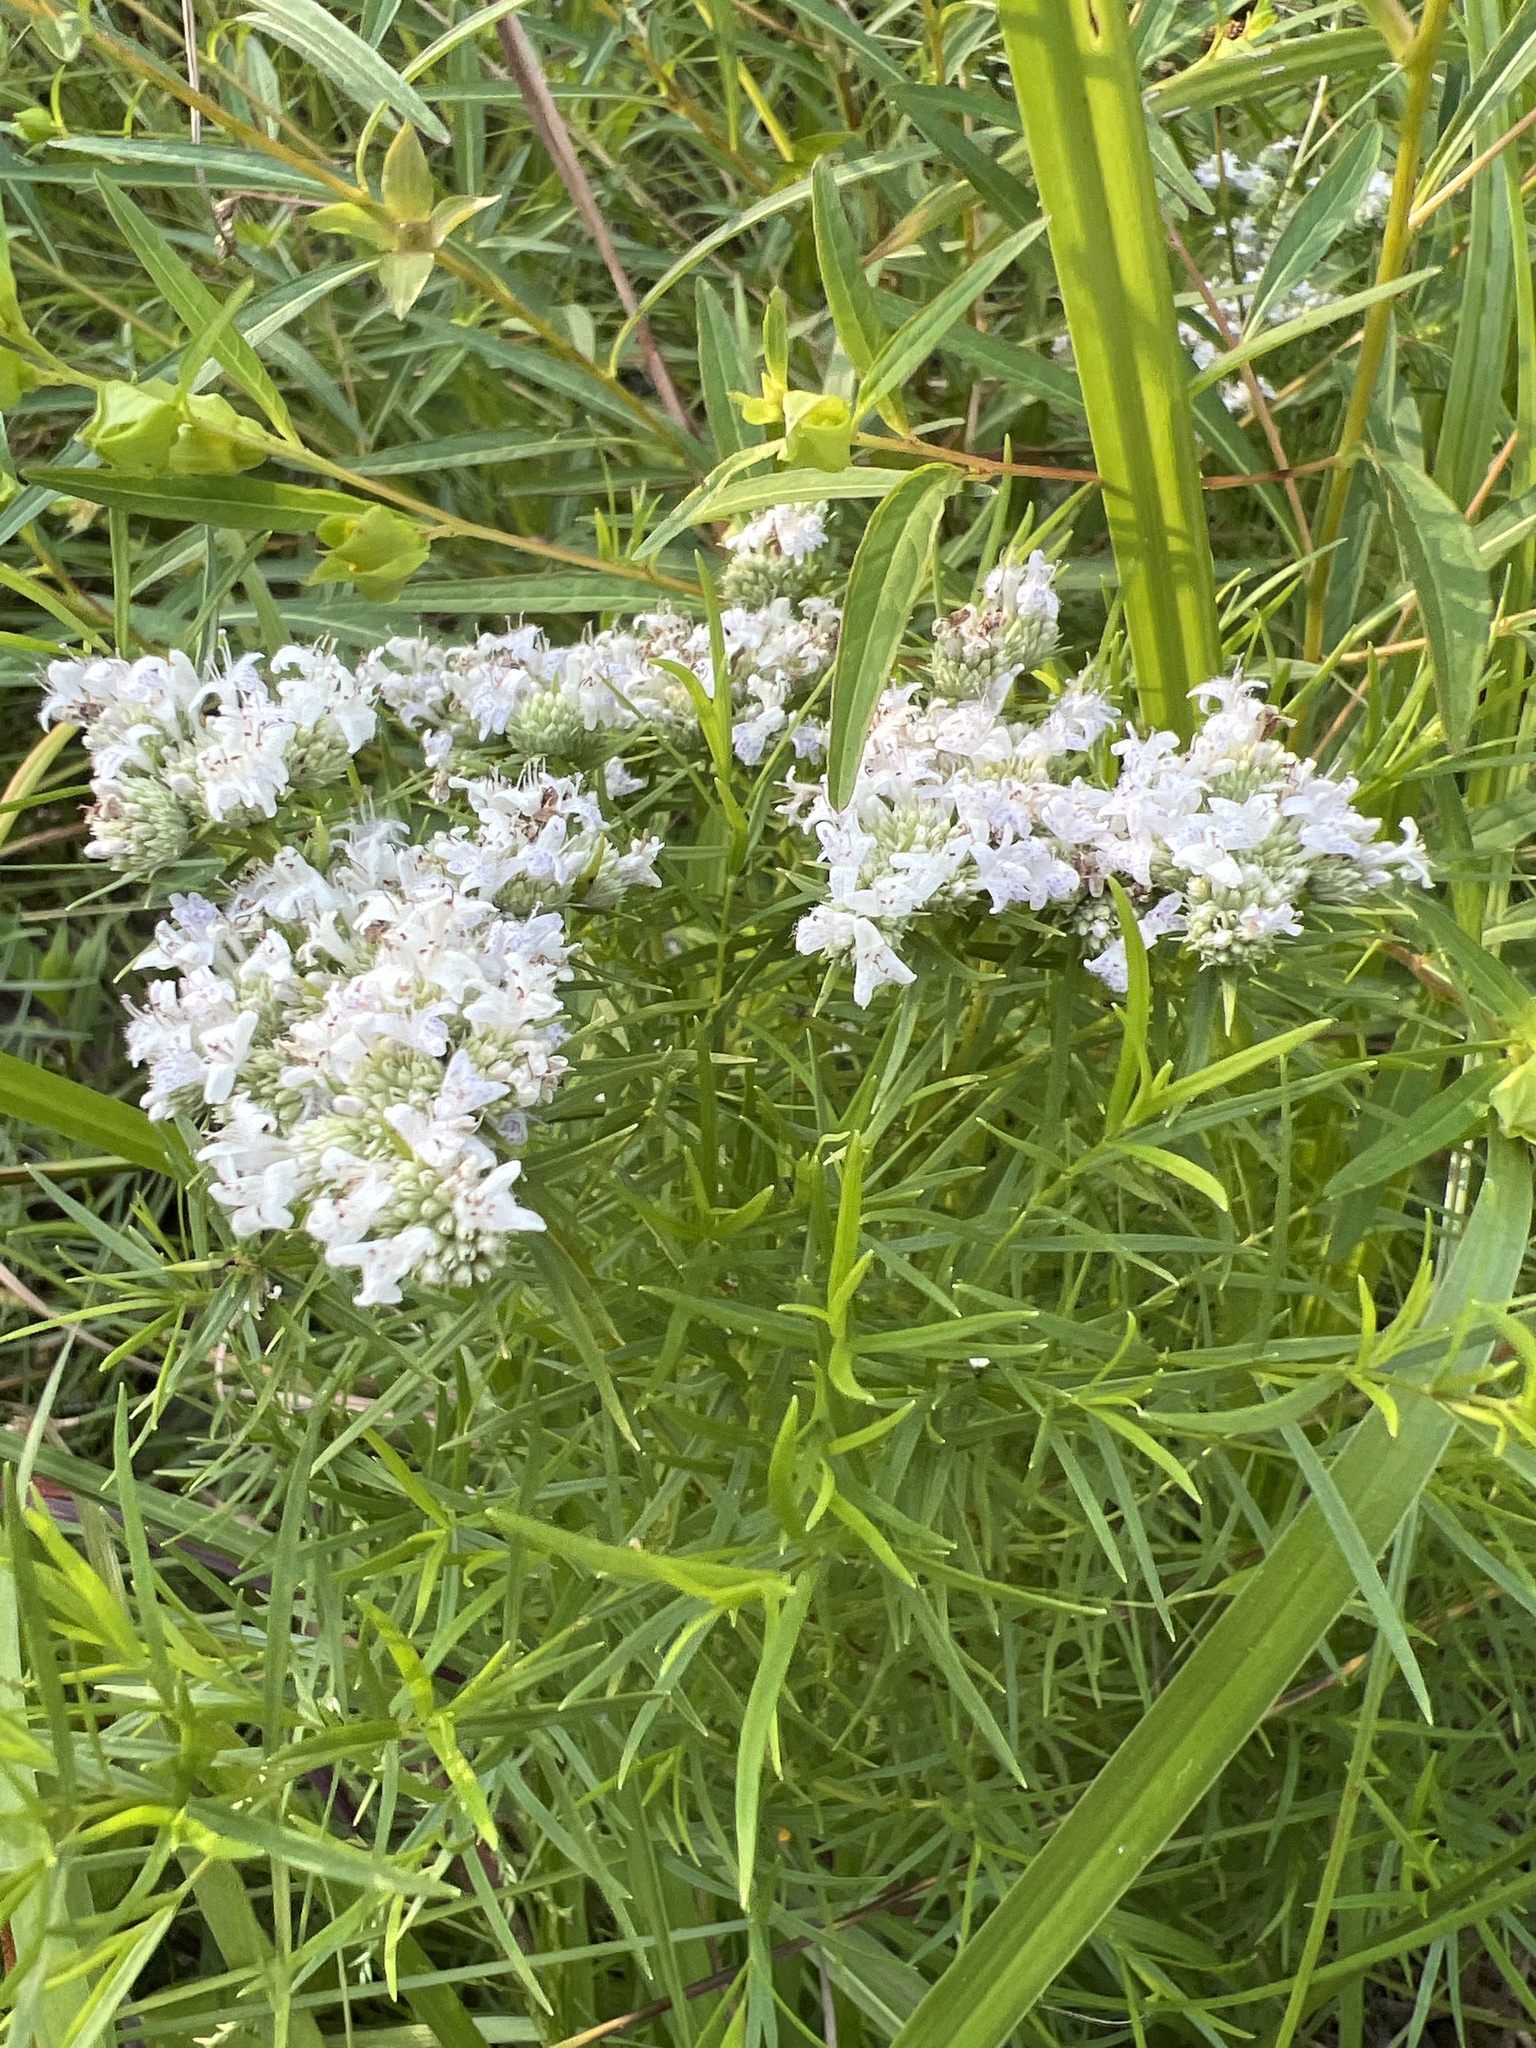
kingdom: Plantae
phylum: Tracheophyta
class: Magnoliopsida
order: Lamiales
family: Lamiaceae
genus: Pycnanthemum
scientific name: Pycnanthemum tenuifolium
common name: Narrow-leaf mountain-mint
